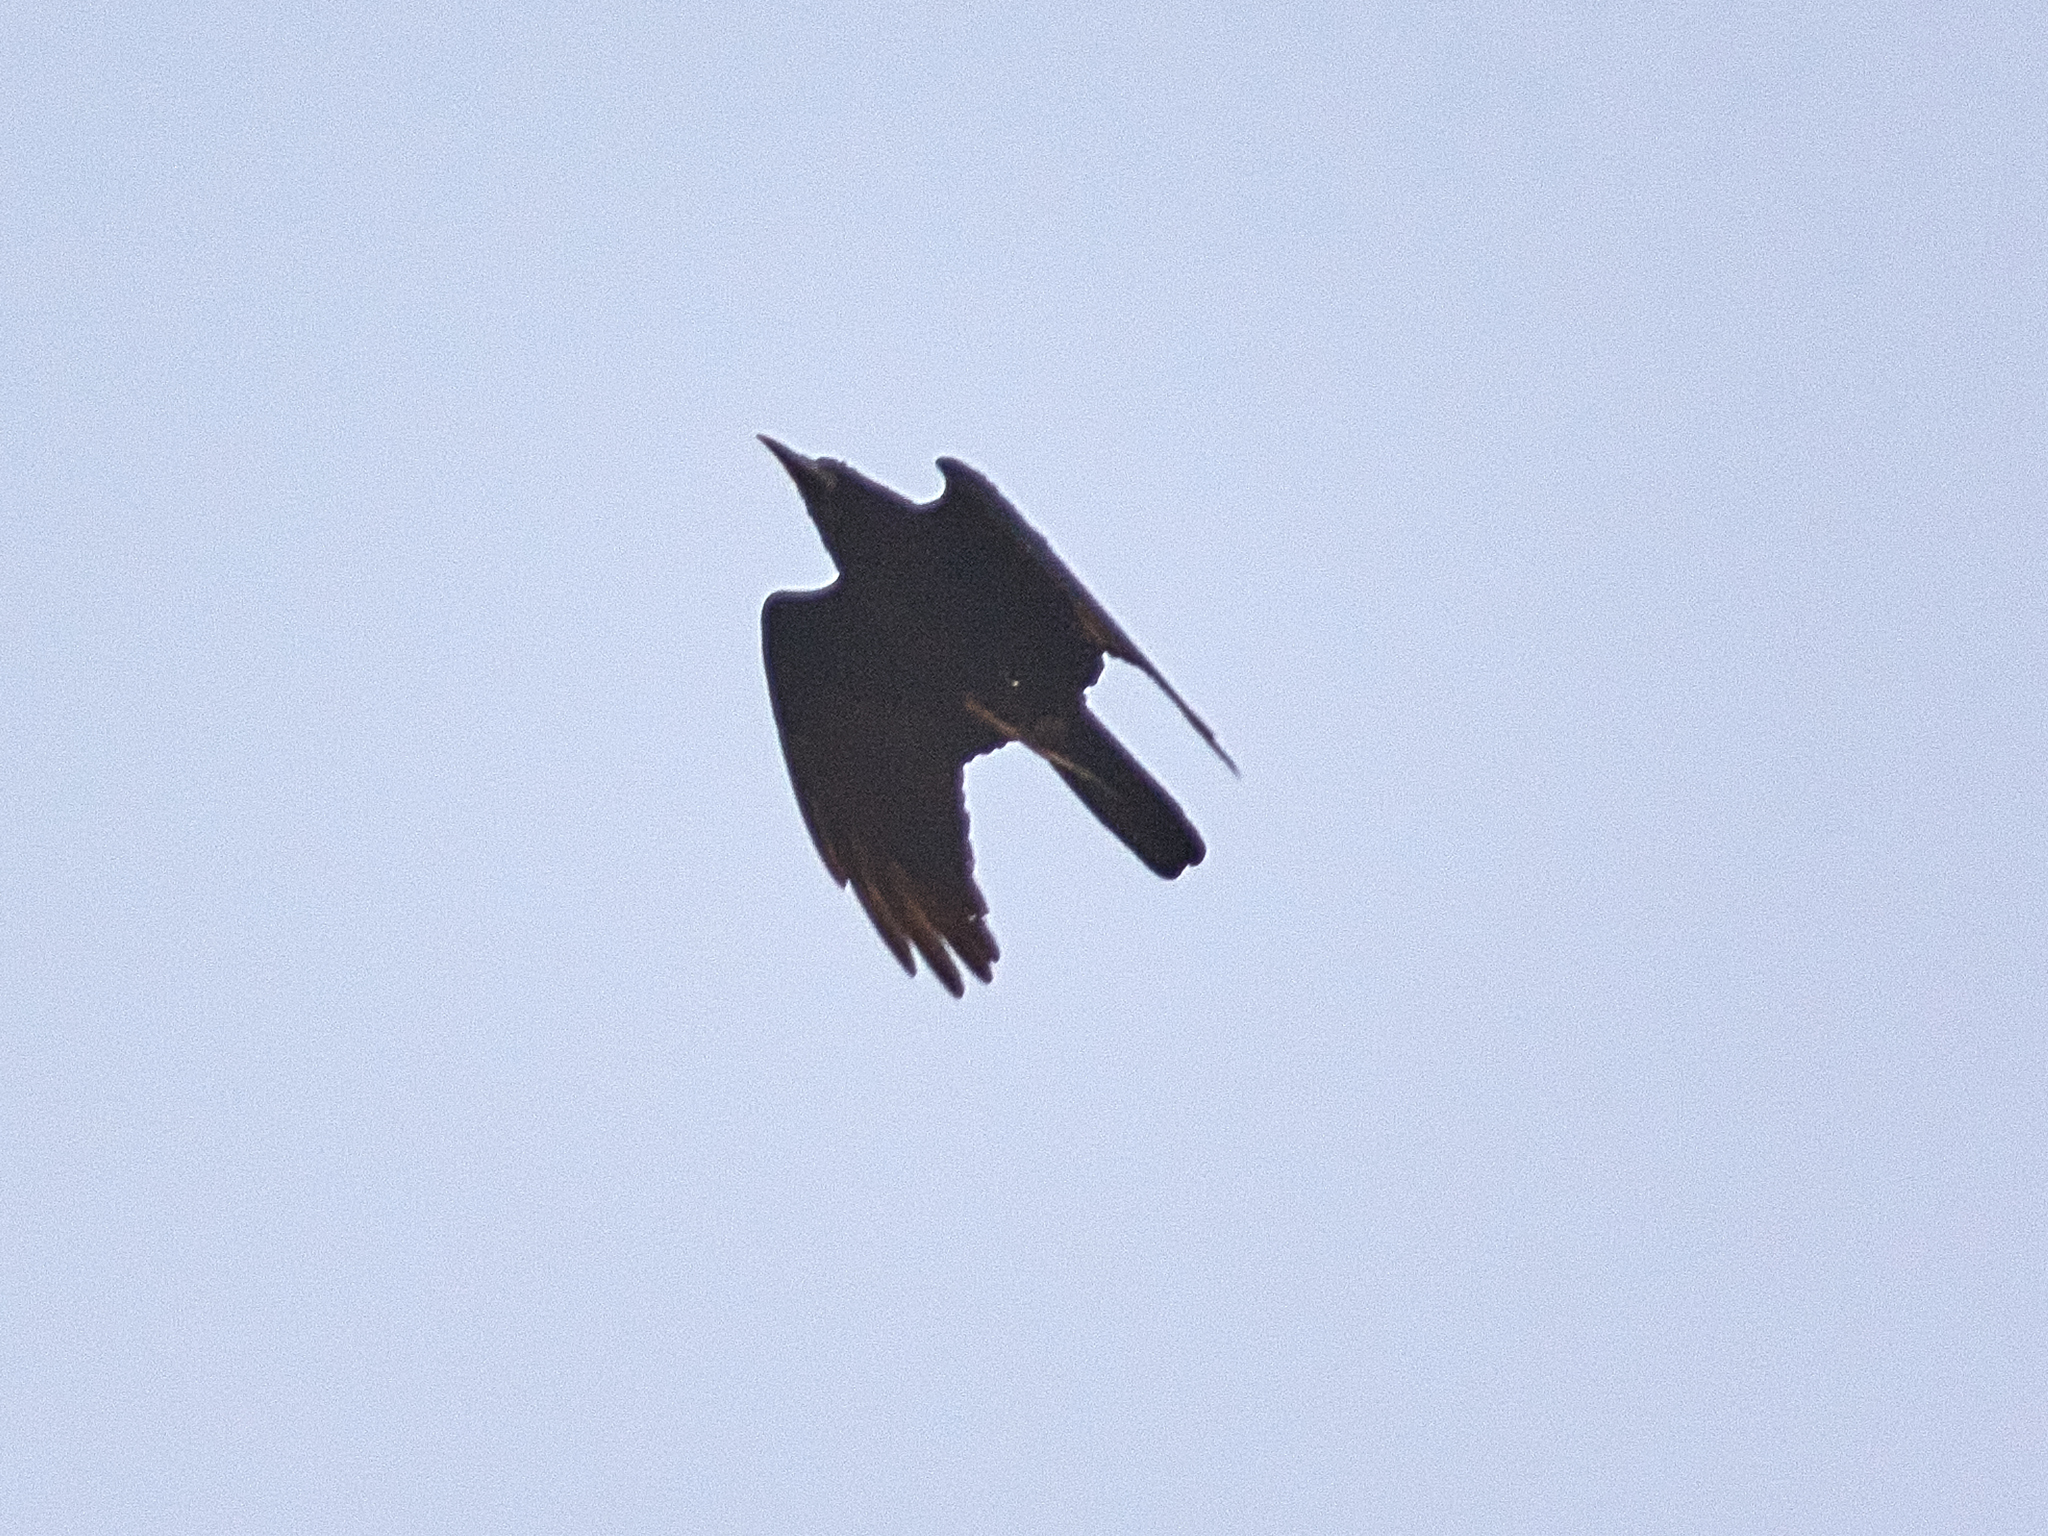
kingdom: Animalia
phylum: Chordata
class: Aves
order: Passeriformes
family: Corvidae
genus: Corvus
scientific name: Corvus frugilegus
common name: Rook
